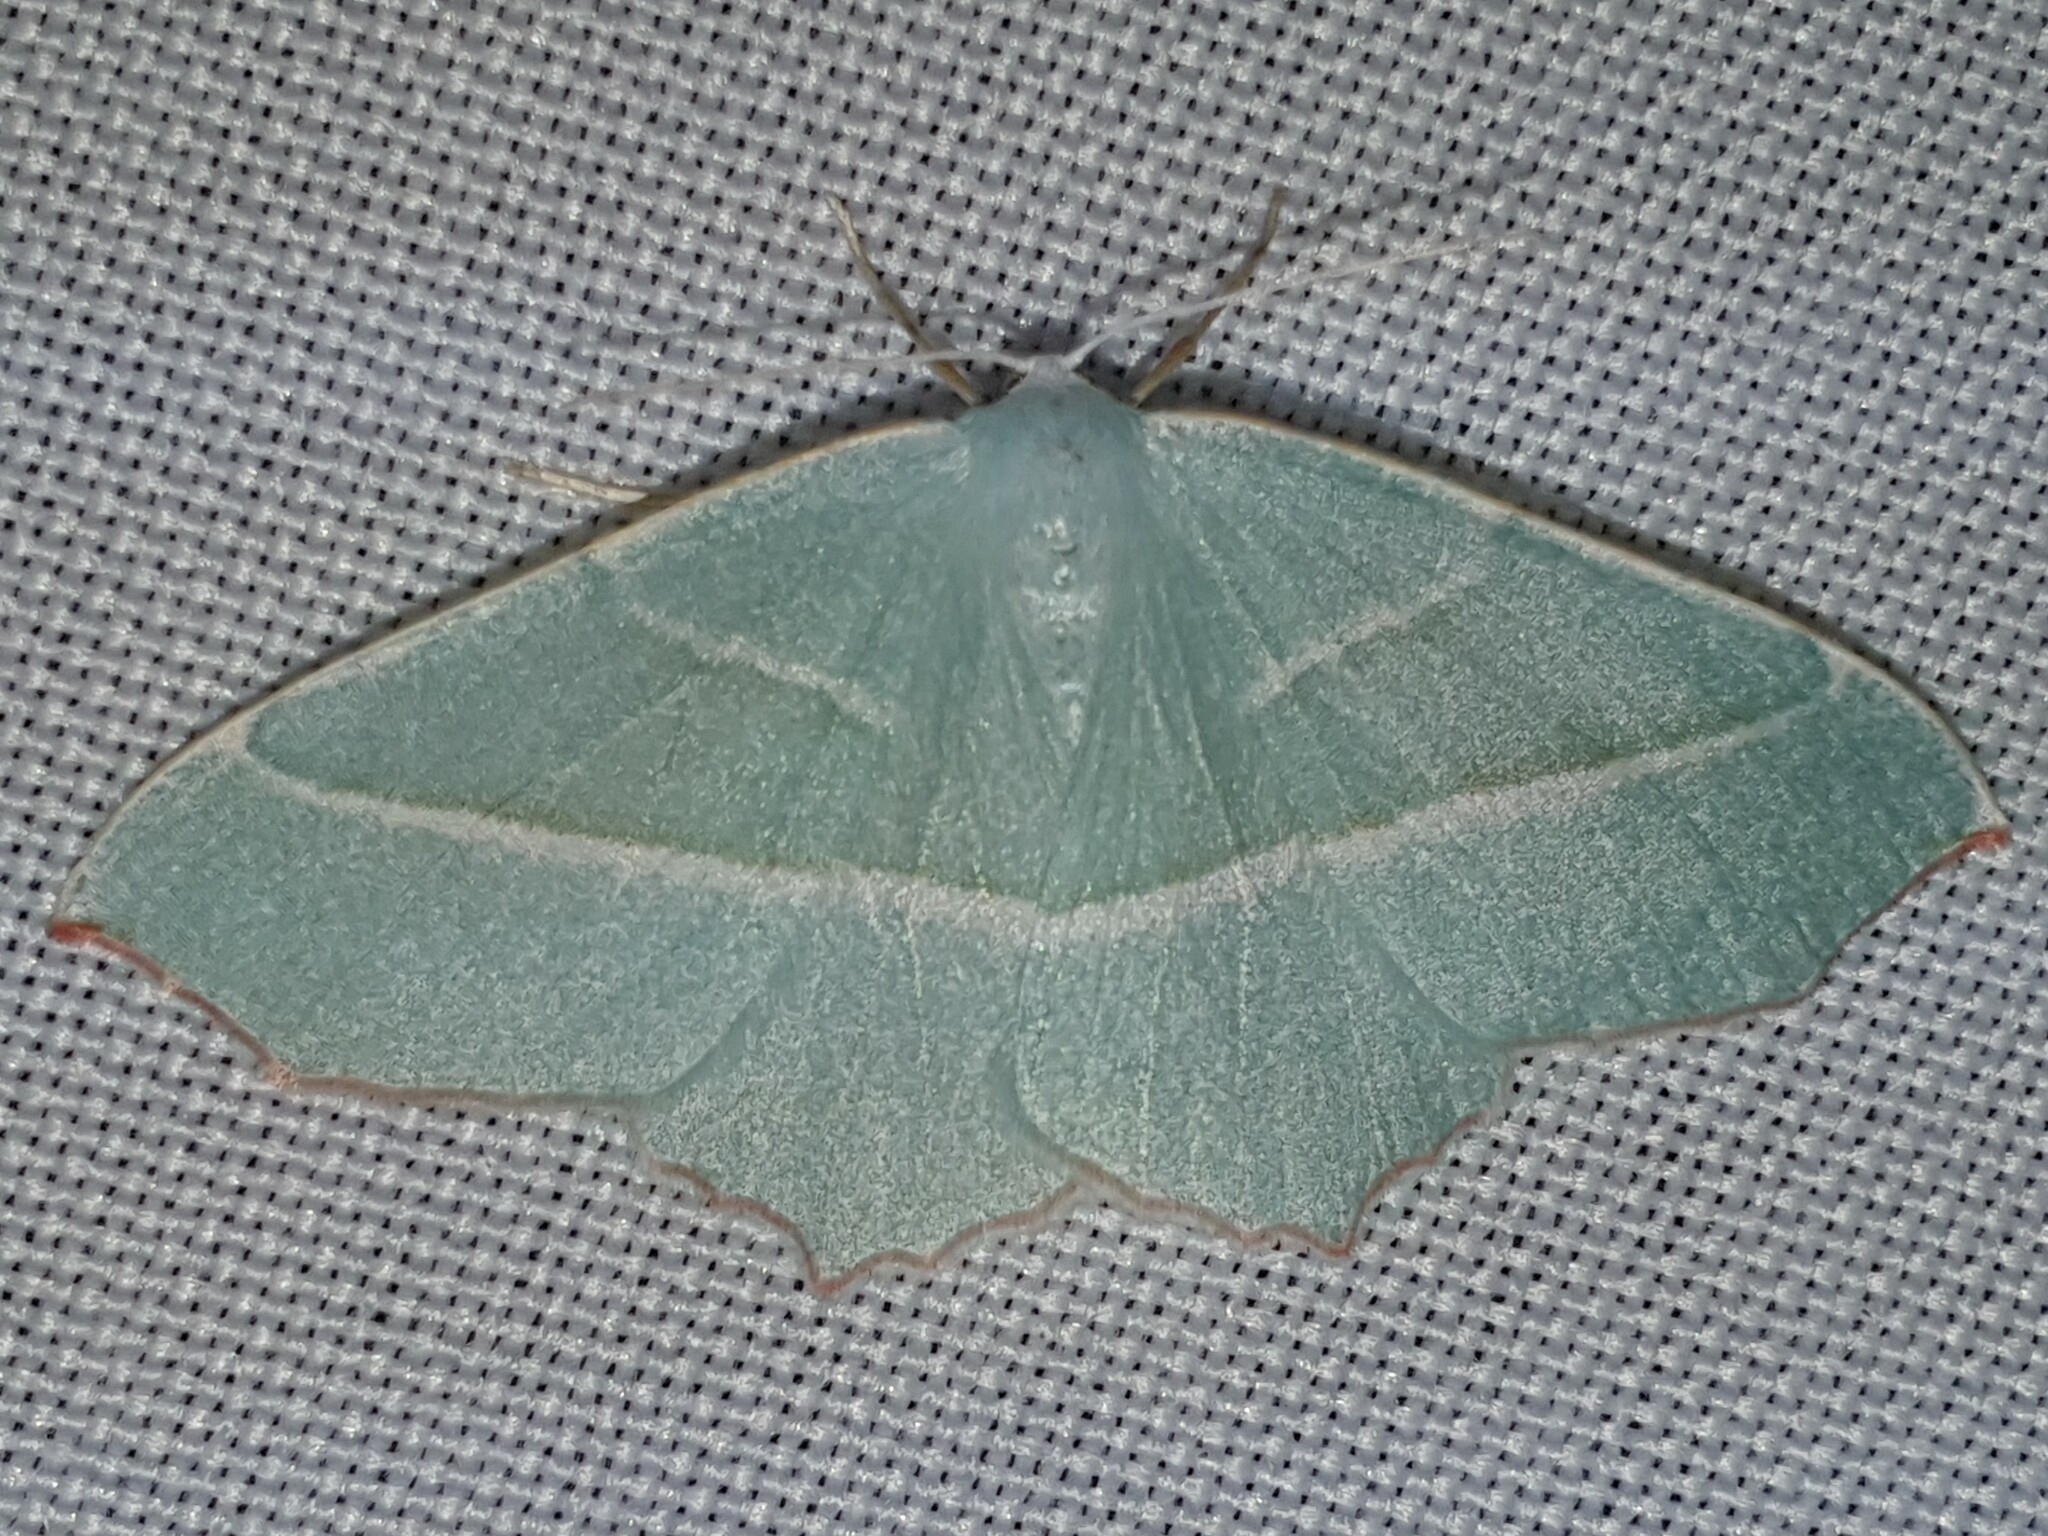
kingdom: Animalia
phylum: Arthropoda
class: Insecta
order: Lepidoptera
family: Geometridae
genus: Campaea
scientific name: Campaea margaritaria
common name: Light emerald
